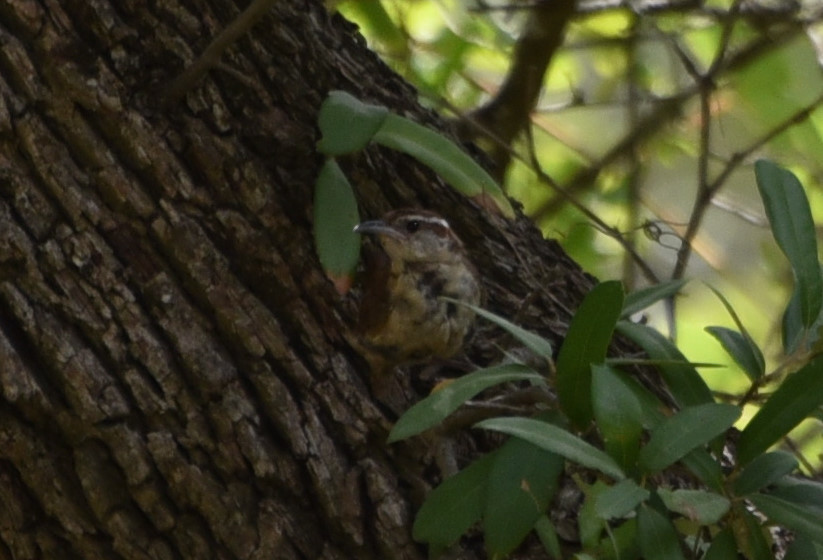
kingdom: Animalia
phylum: Chordata
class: Aves
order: Passeriformes
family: Troglodytidae
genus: Thryothorus
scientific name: Thryothorus ludovicianus
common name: Carolina wren
